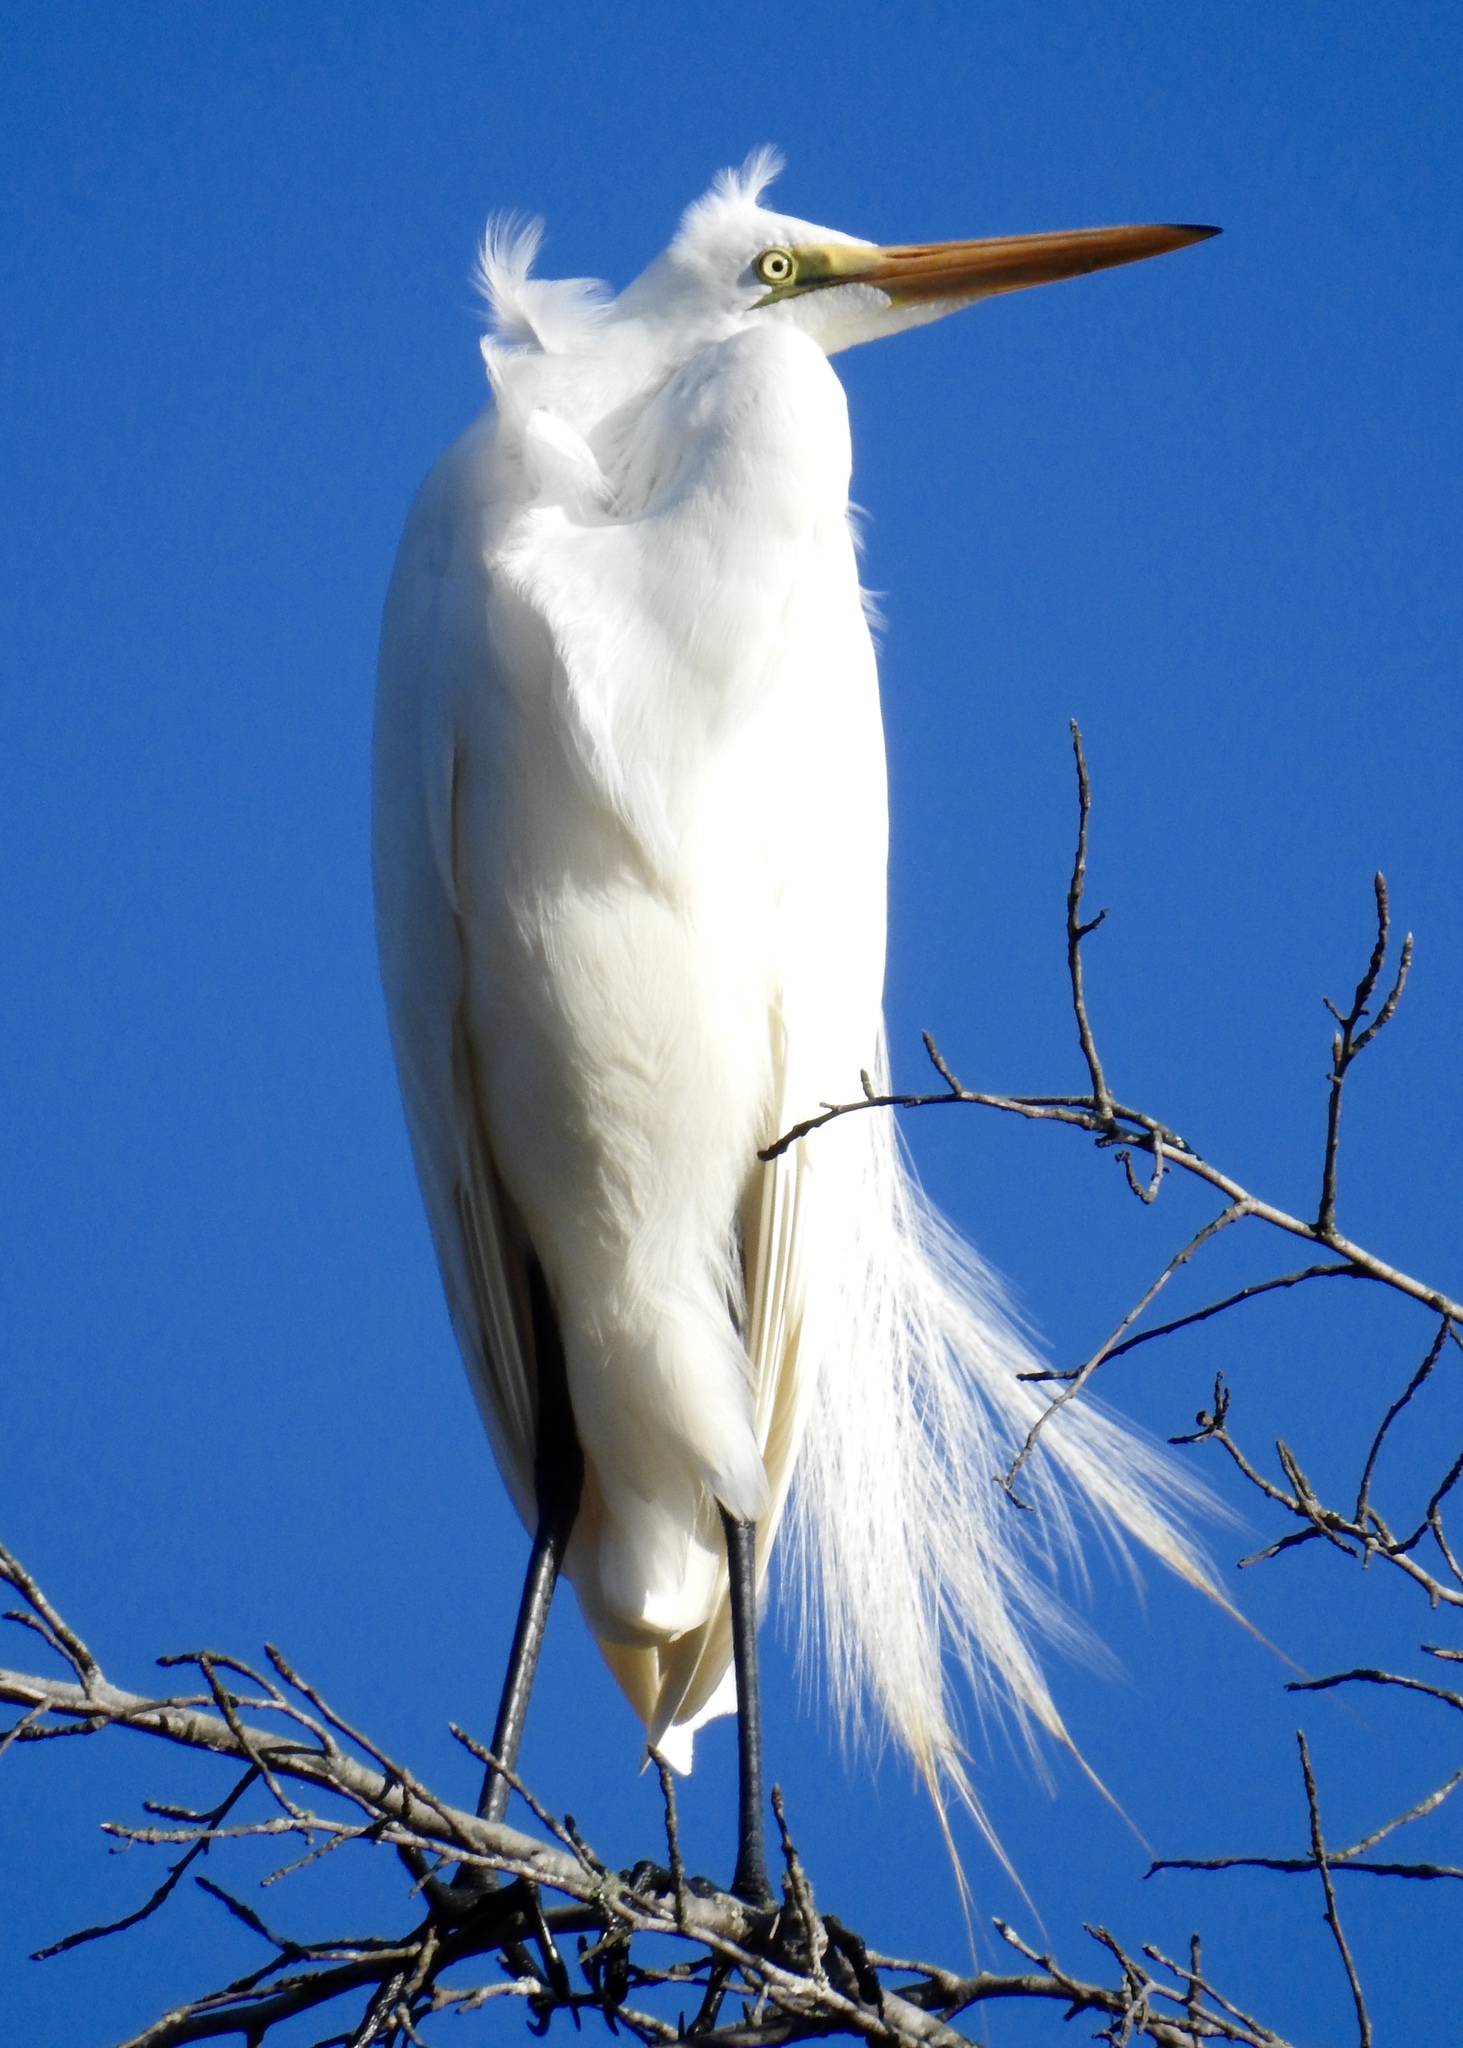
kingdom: Animalia
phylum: Chordata
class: Aves
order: Pelecaniformes
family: Ardeidae
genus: Ardea
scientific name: Ardea alba
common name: Great egret
